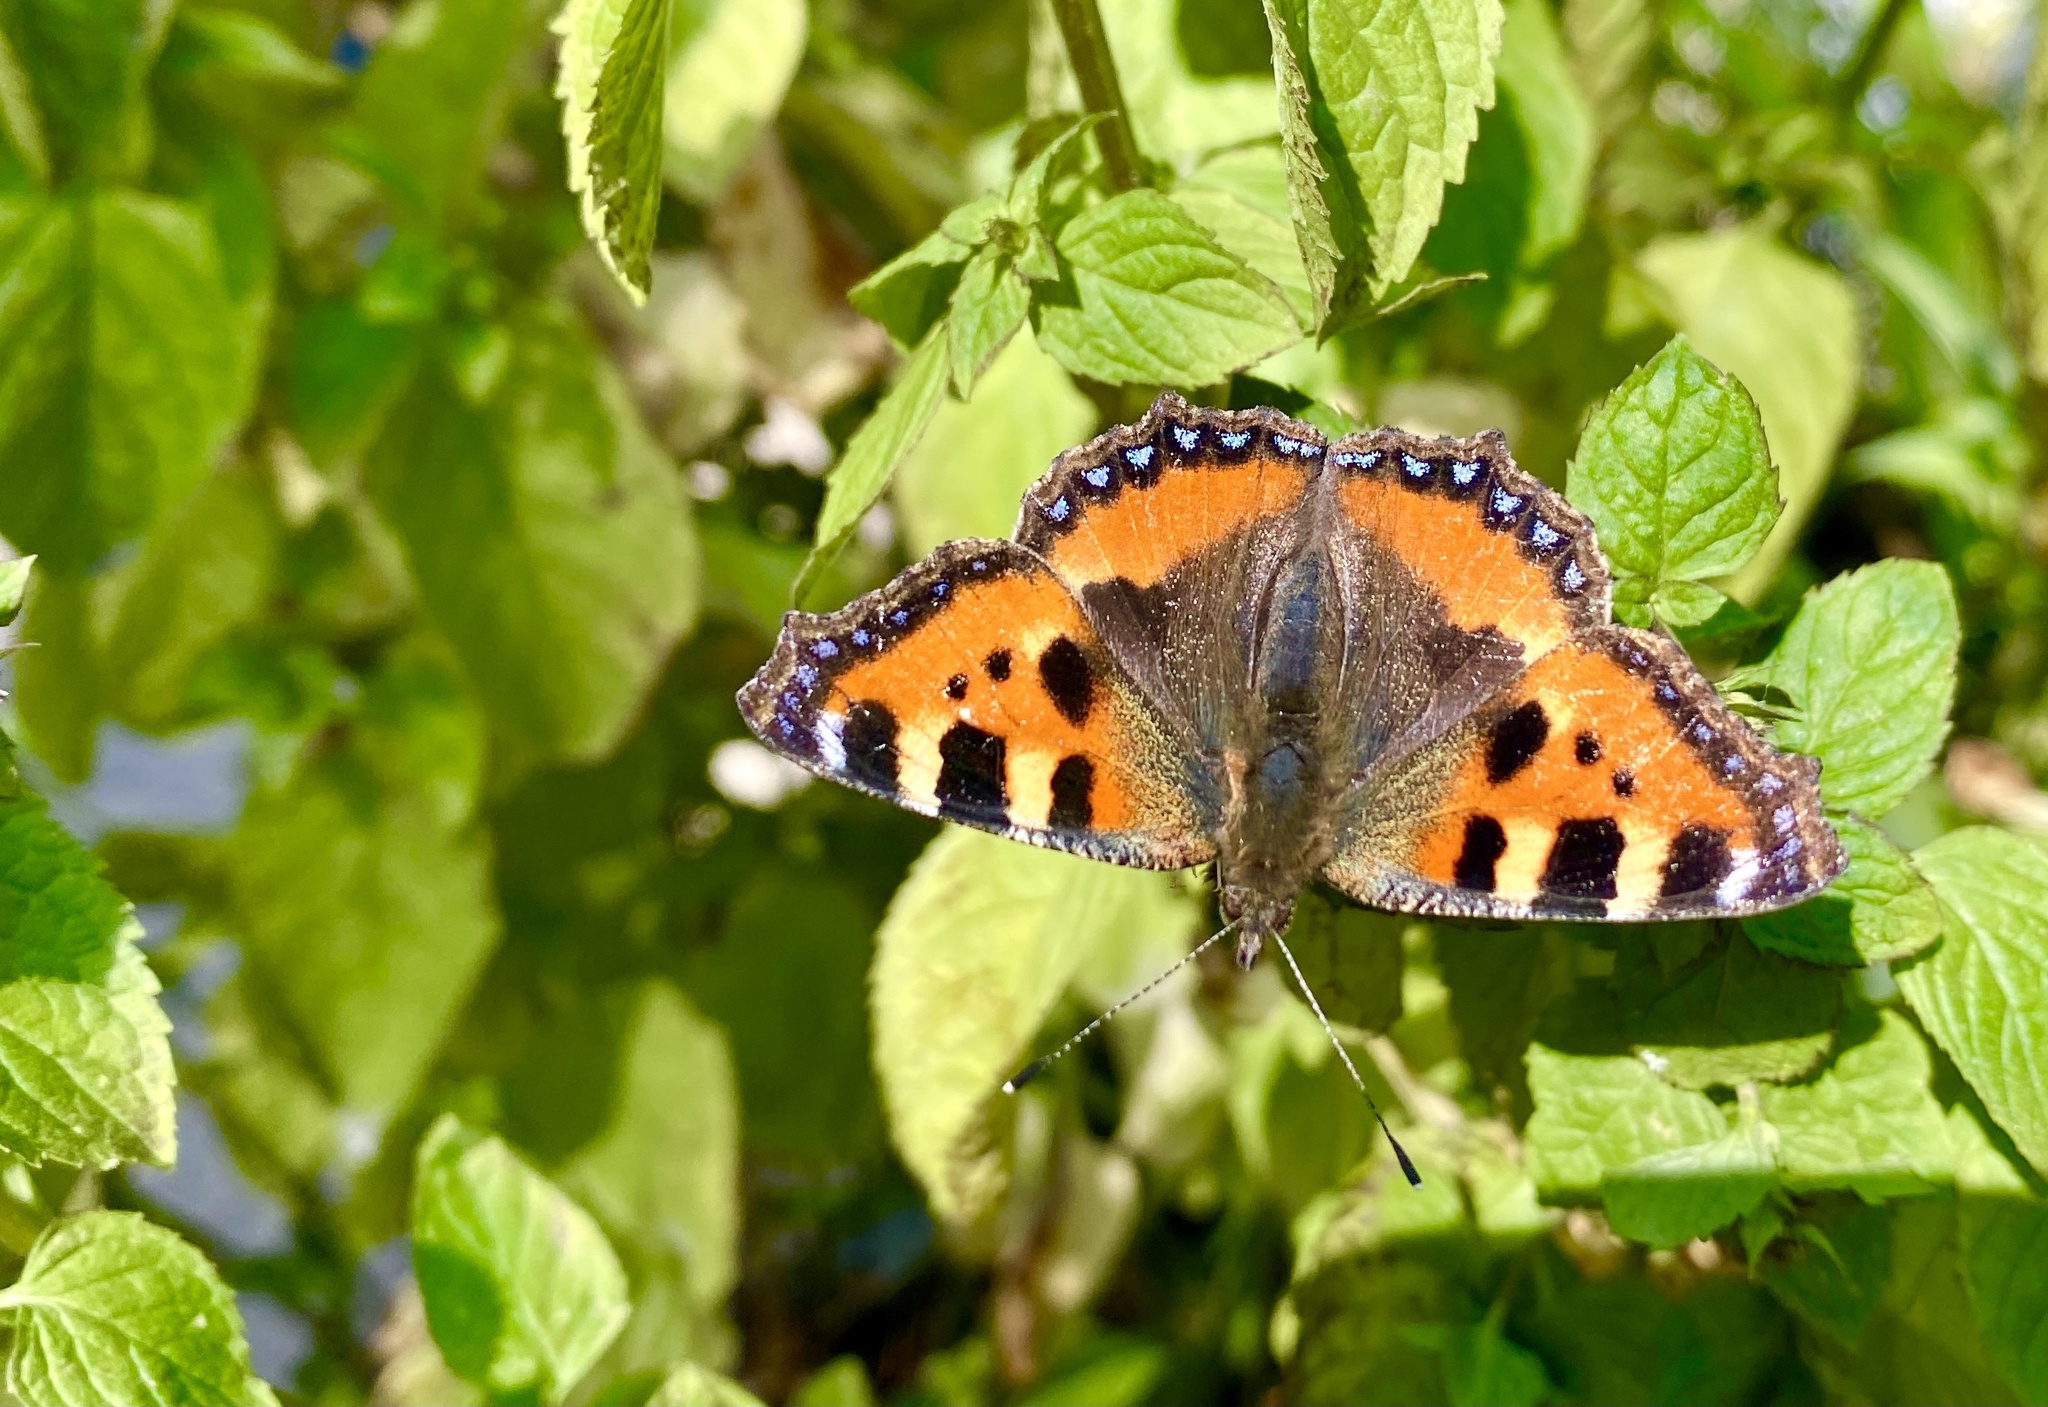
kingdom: Animalia
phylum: Arthropoda
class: Insecta
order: Lepidoptera
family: Nymphalidae
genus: Aglais
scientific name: Aglais urticae
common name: Small tortoiseshell
